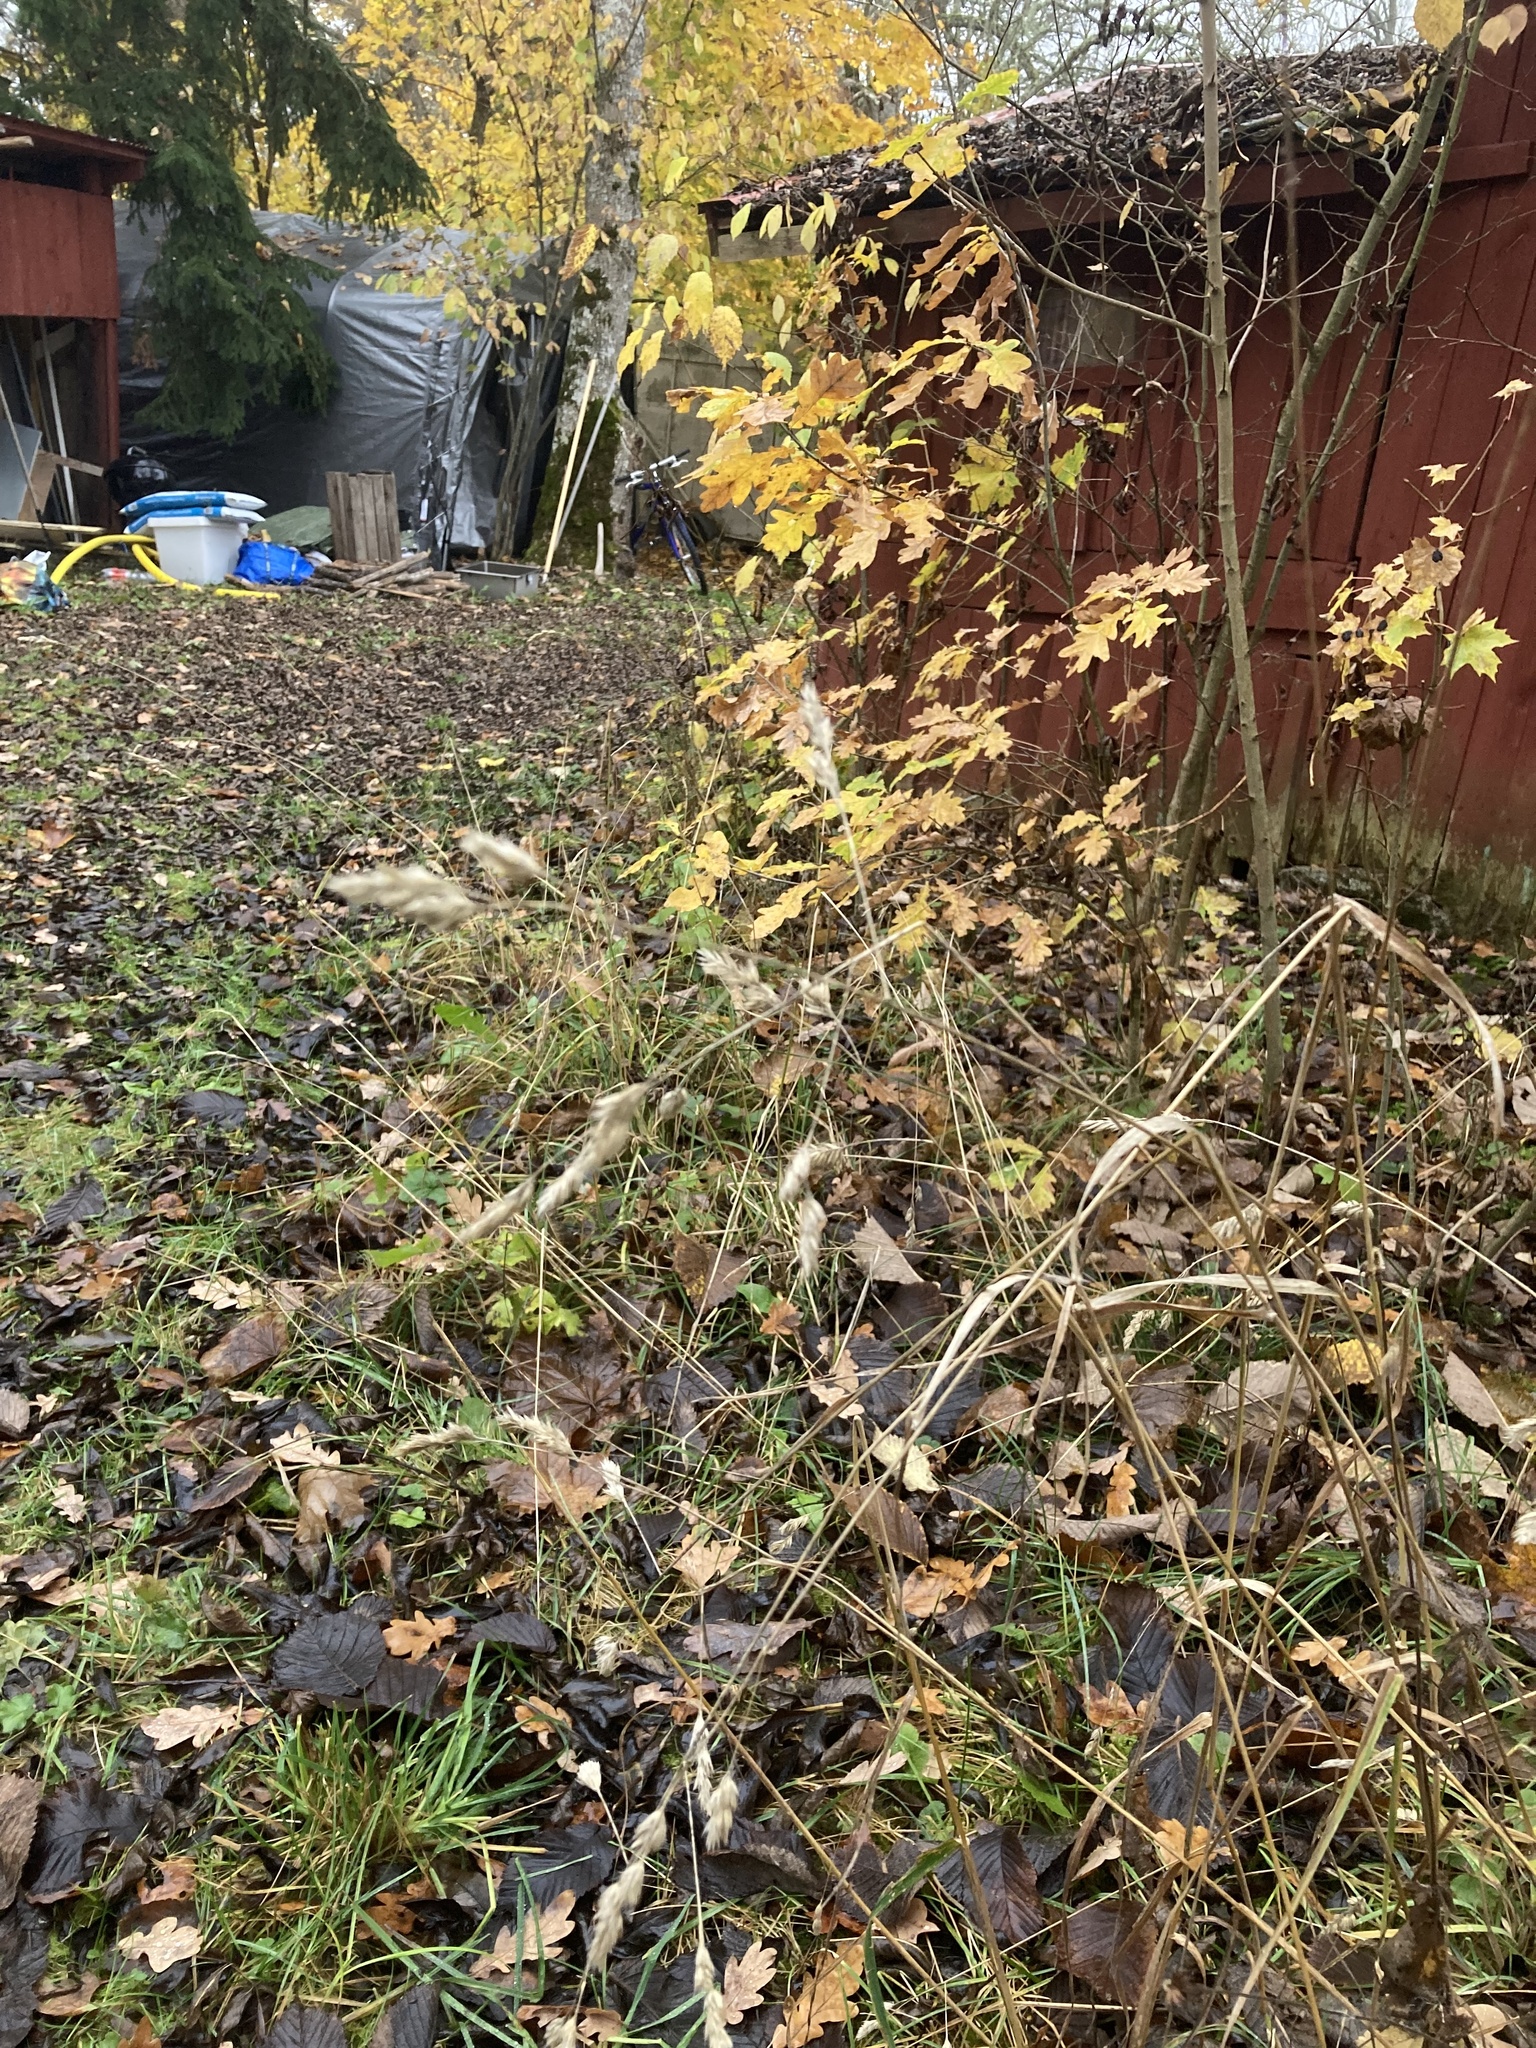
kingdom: Plantae
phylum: Tracheophyta
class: Liliopsida
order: Poales
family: Poaceae
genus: Dactylis
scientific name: Dactylis glomerata
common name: Orchardgrass
